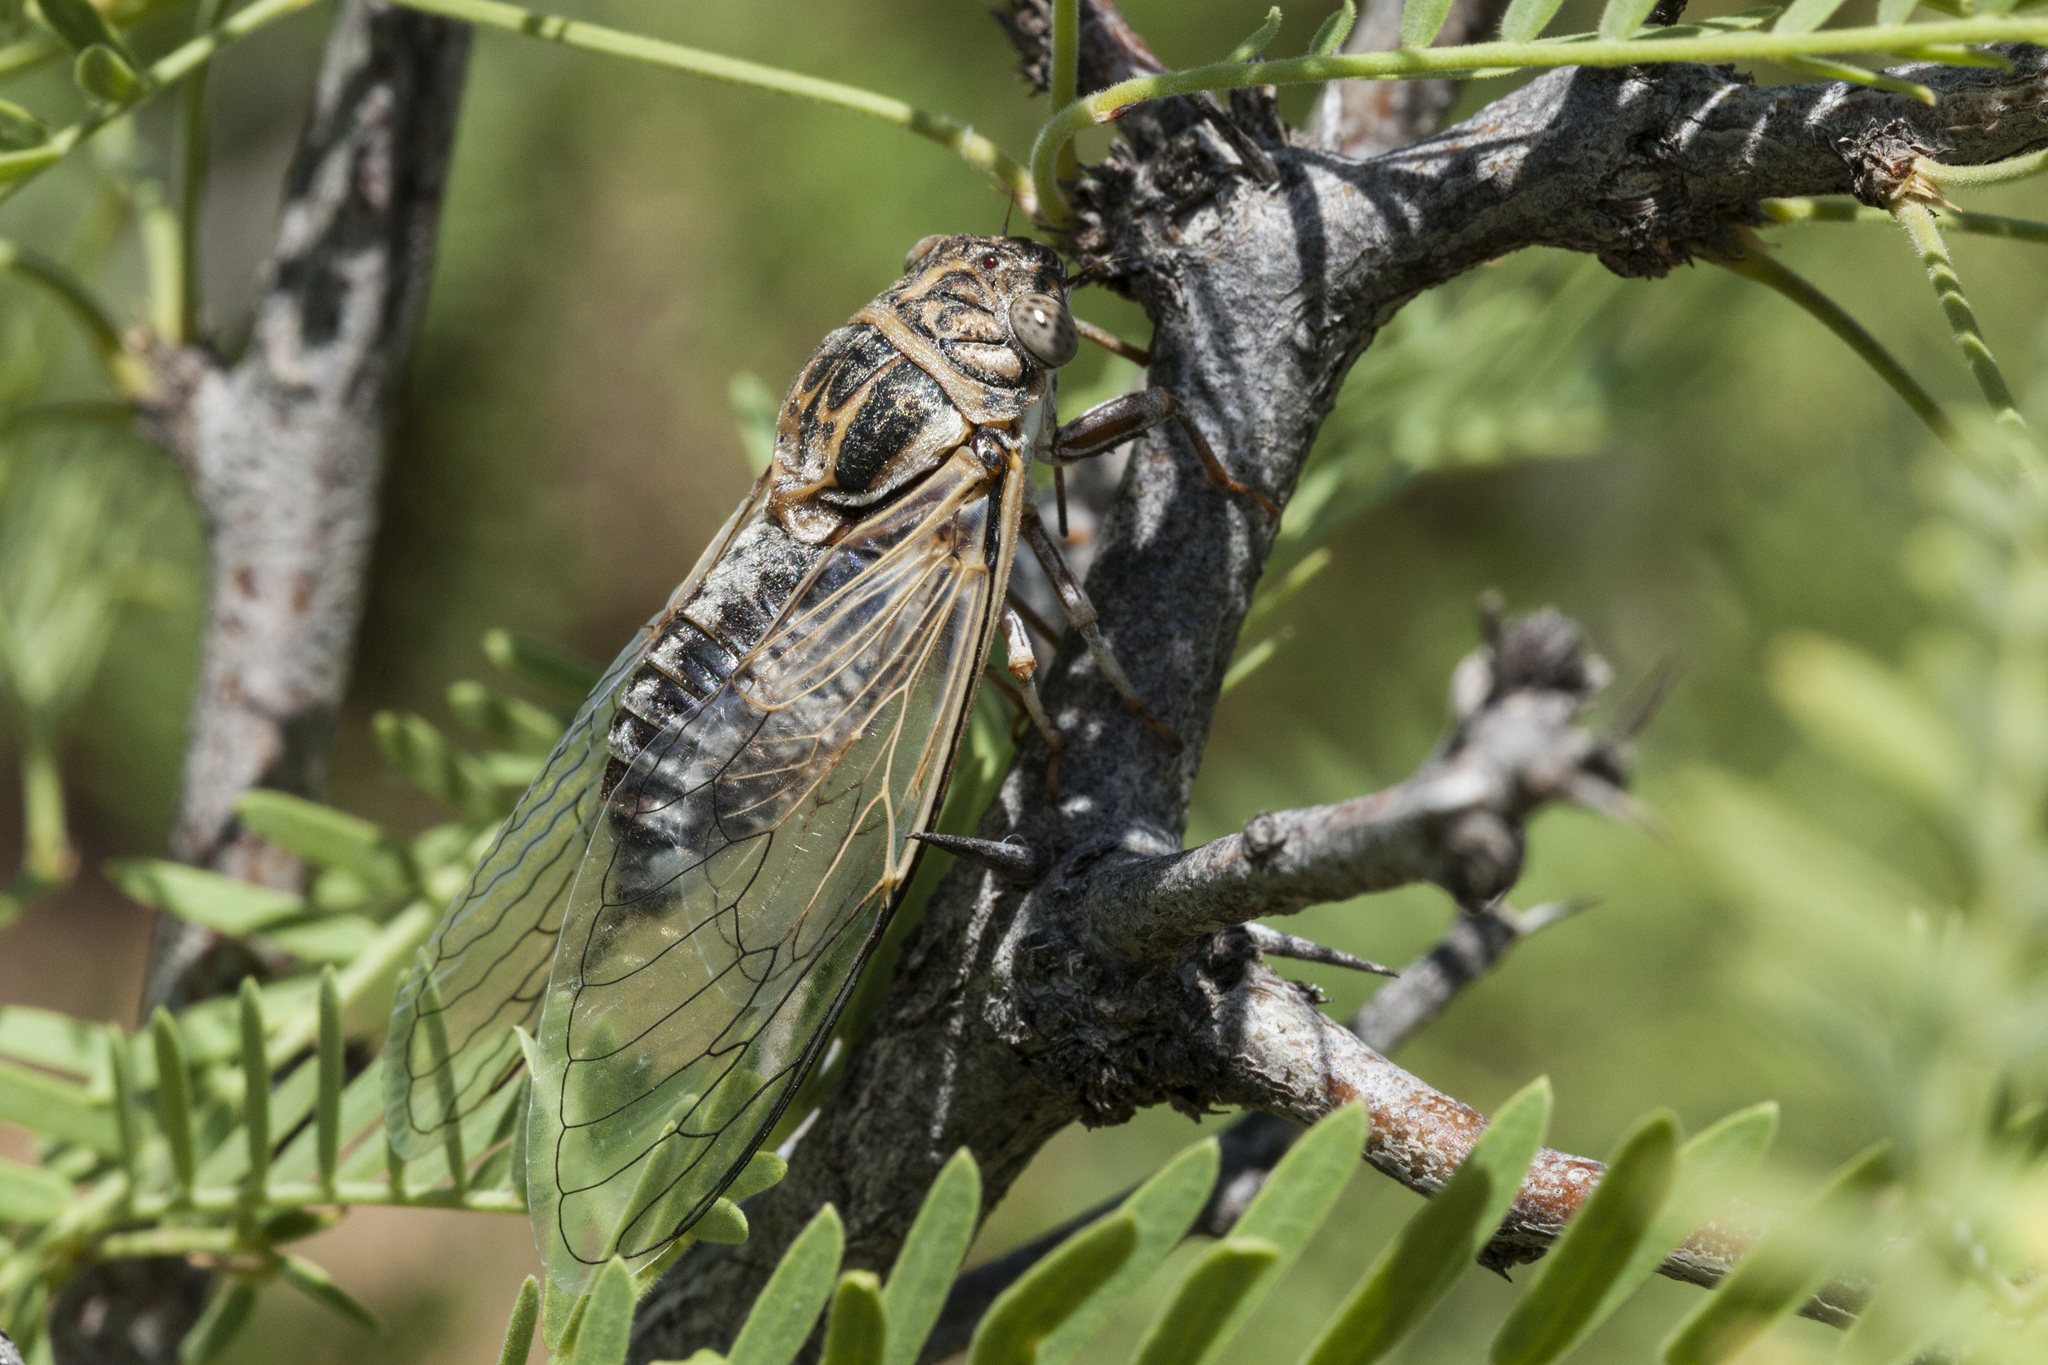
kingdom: Animalia
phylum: Arthropoda
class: Insecta
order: Hemiptera
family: Cicadidae
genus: Diceroprocta
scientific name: Diceroprocta eugraphica
